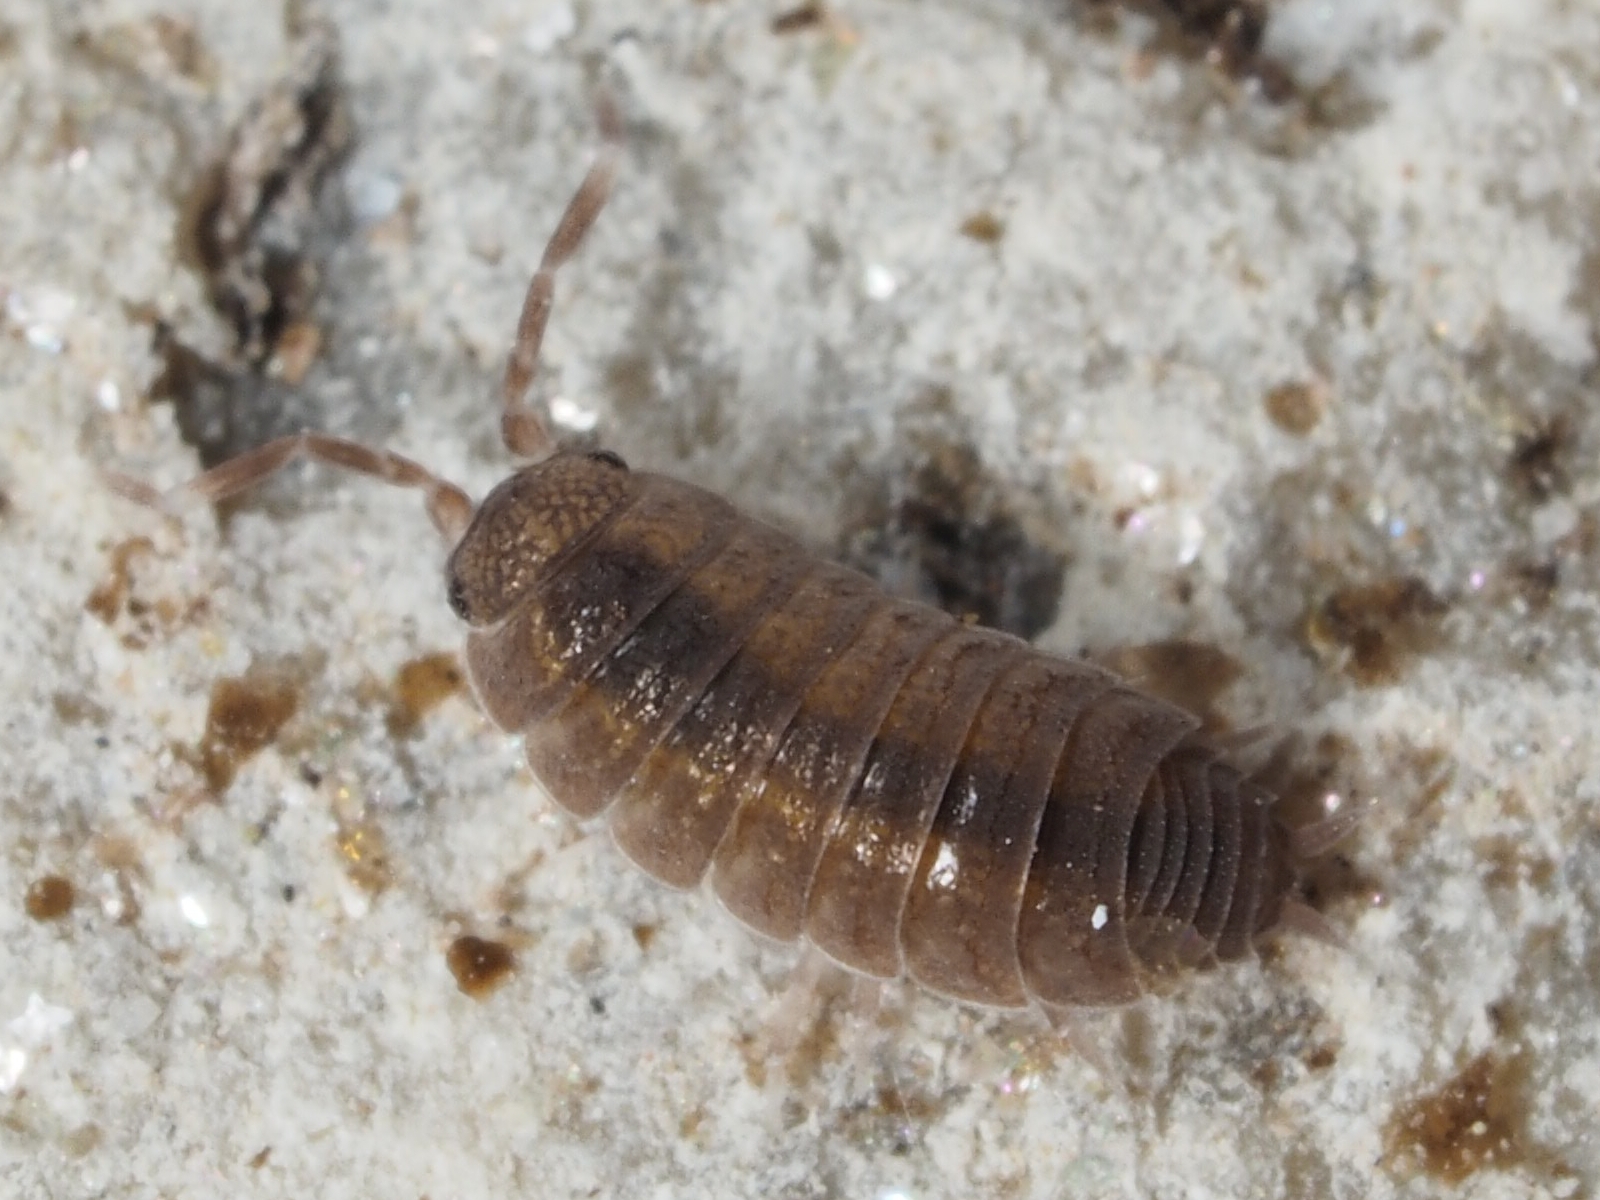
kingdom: Animalia
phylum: Arthropoda
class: Malacostraca
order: Isopoda
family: Porcellionidae
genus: Porcellionides
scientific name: Porcellionides
